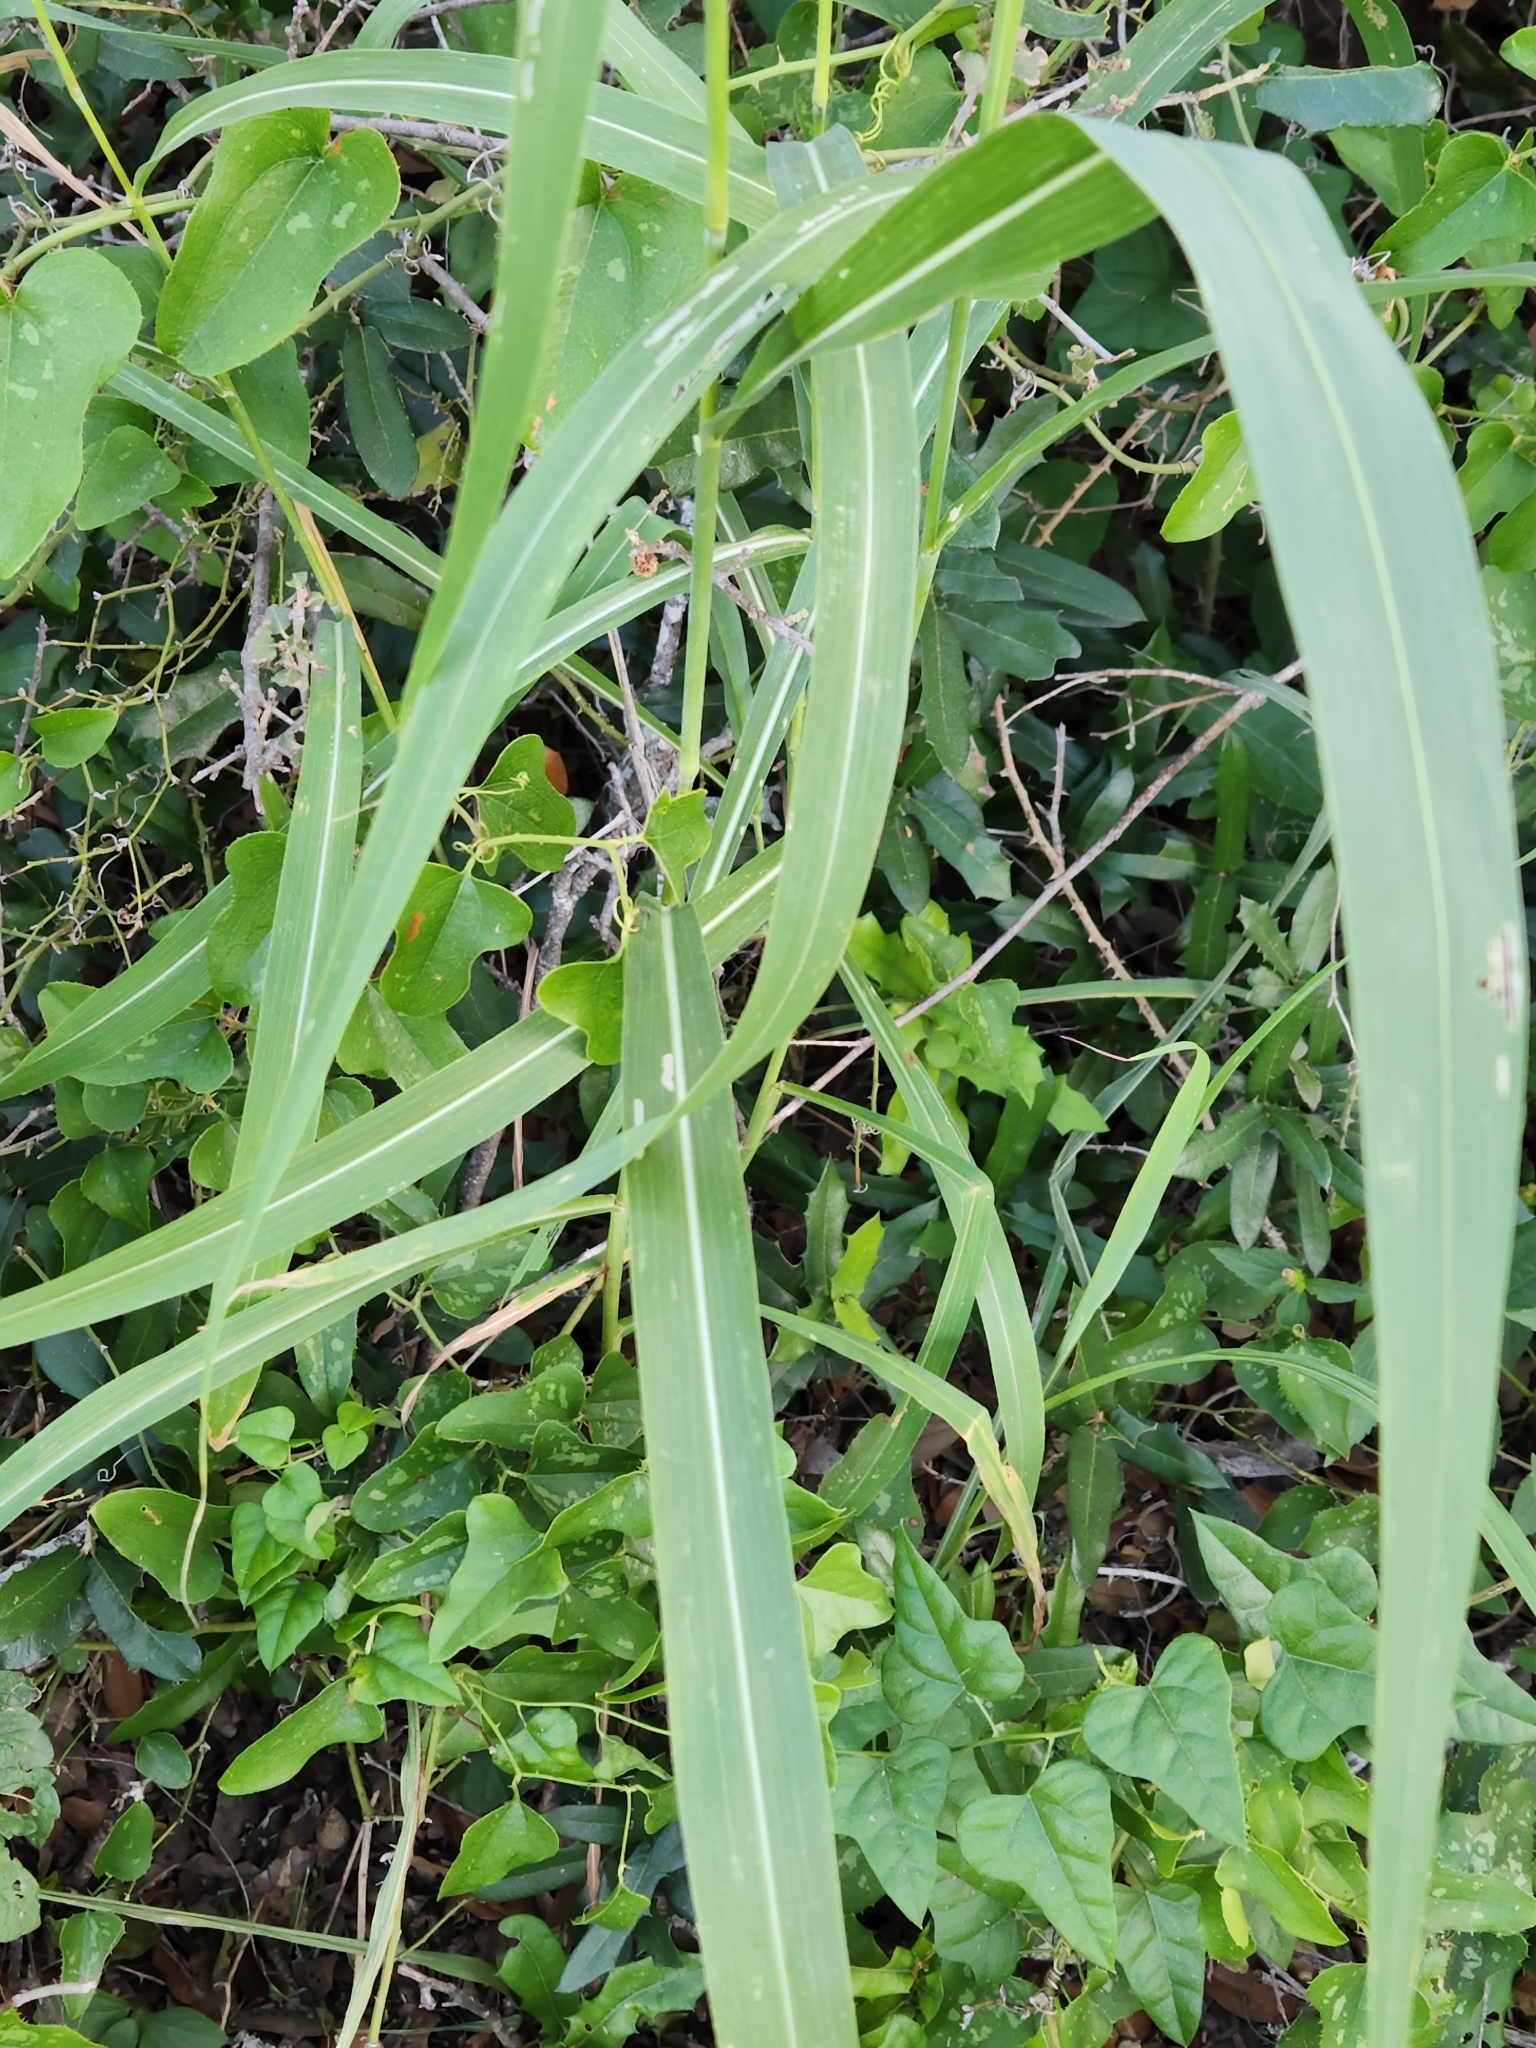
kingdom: Plantae
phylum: Tracheophyta
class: Liliopsida
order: Poales
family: Poaceae
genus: Sorghum
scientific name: Sorghum halepense
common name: Johnson-grass
